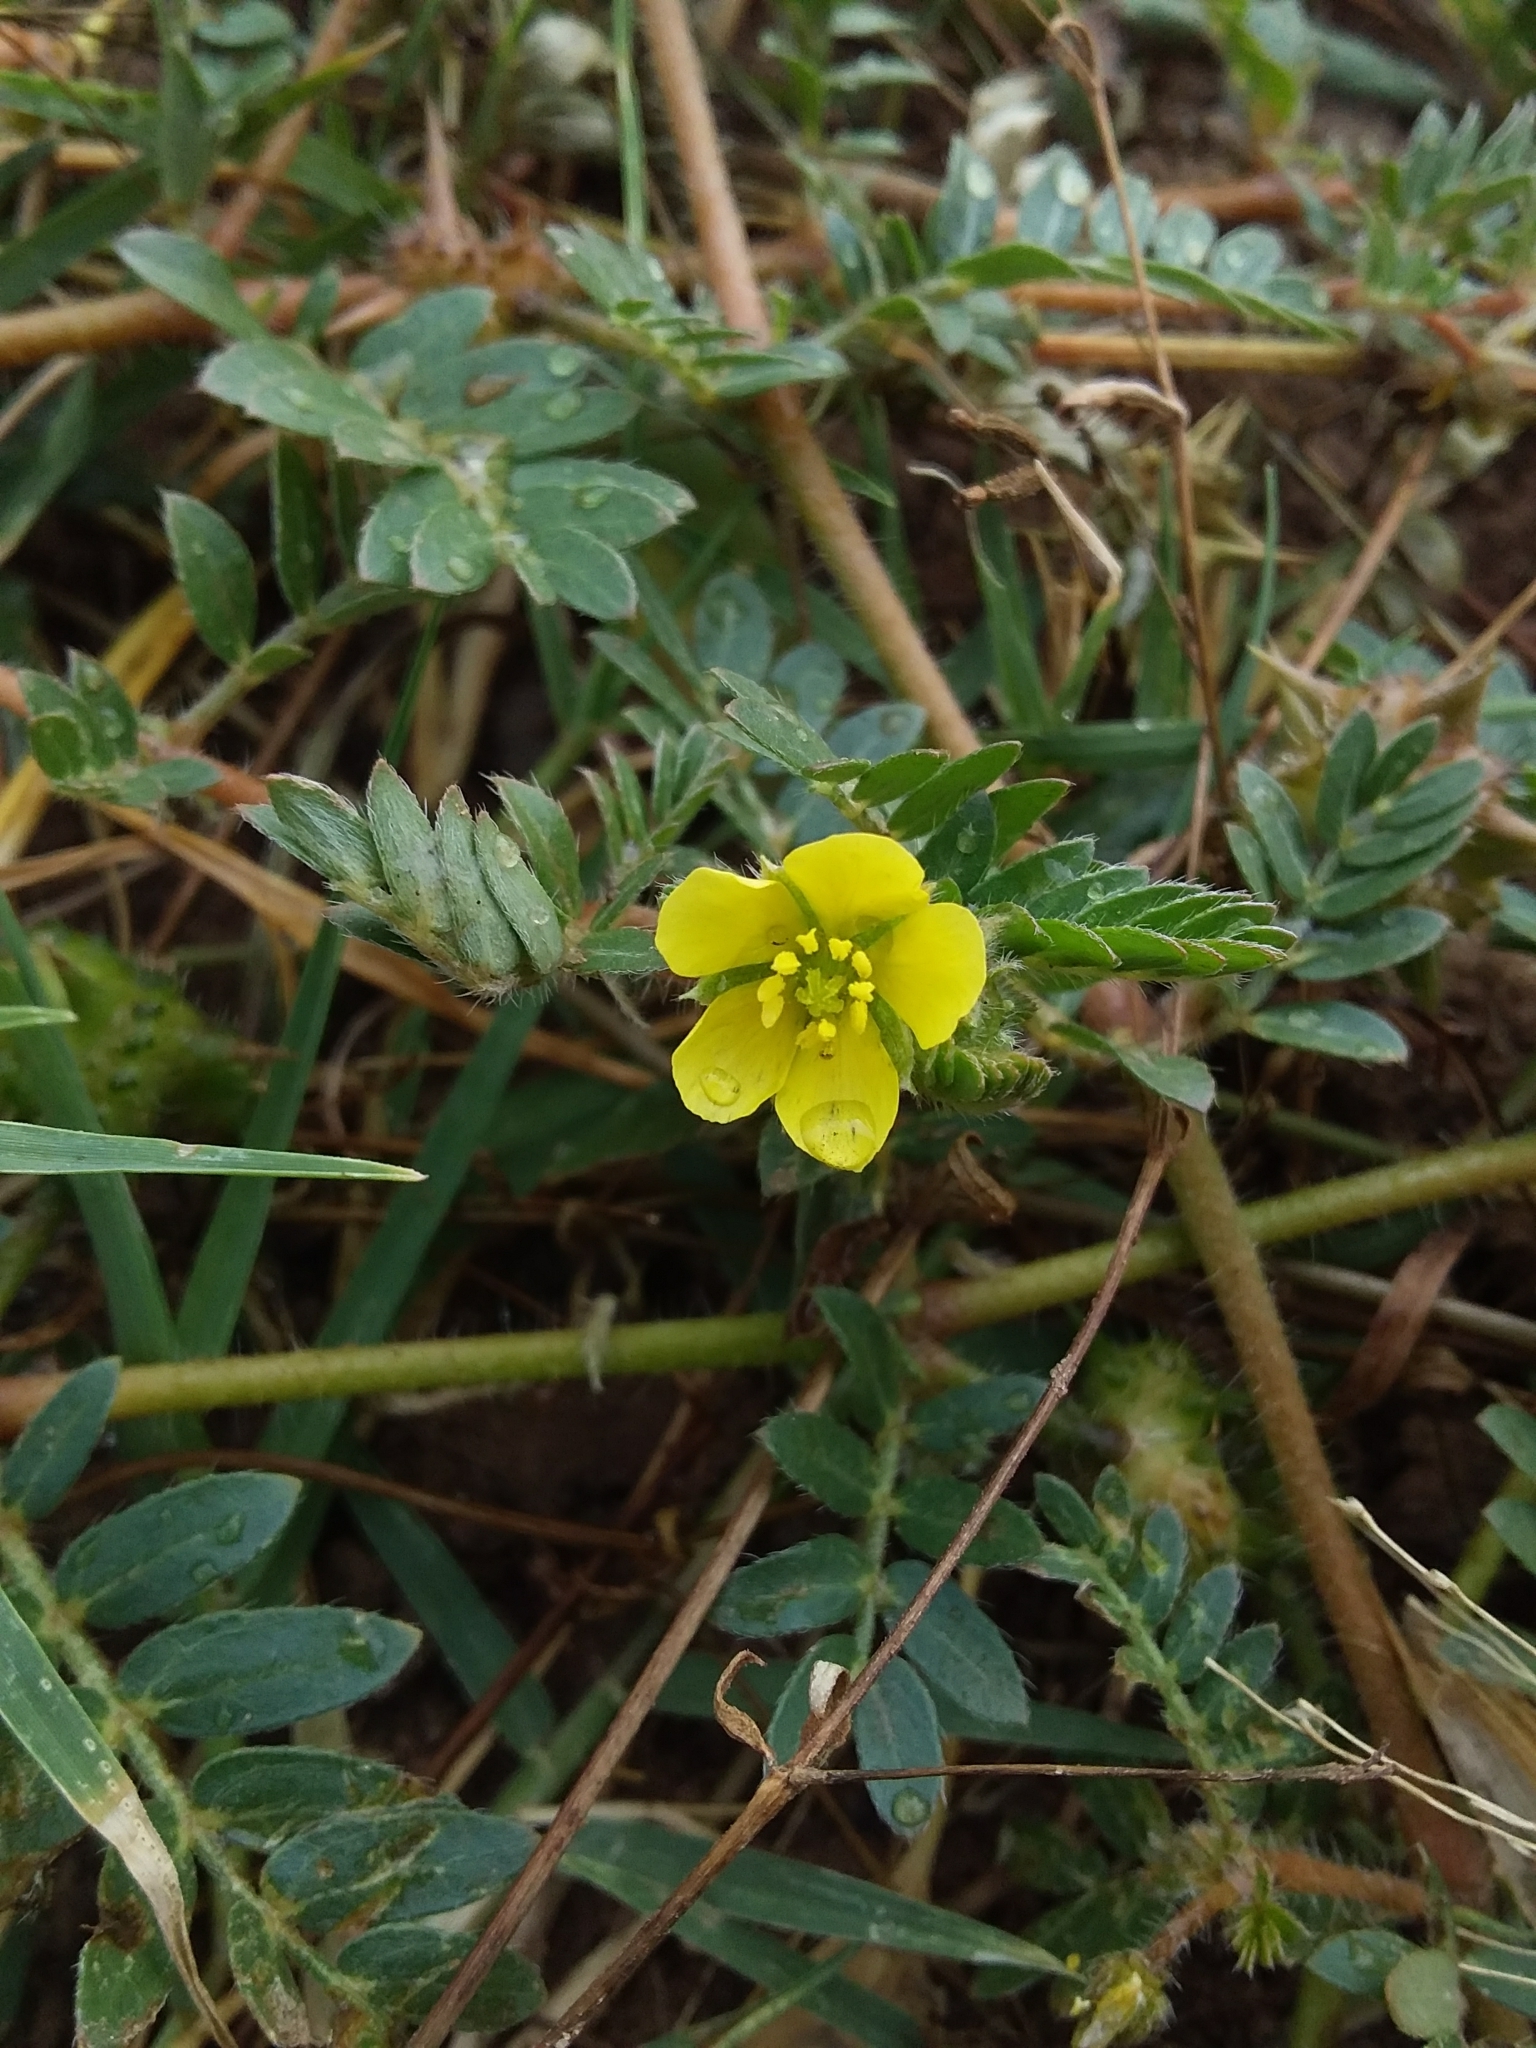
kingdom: Plantae
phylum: Tracheophyta
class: Magnoliopsida
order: Zygophyllales
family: Zygophyllaceae
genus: Tribulus
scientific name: Tribulus terrestris
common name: Puncturevine
